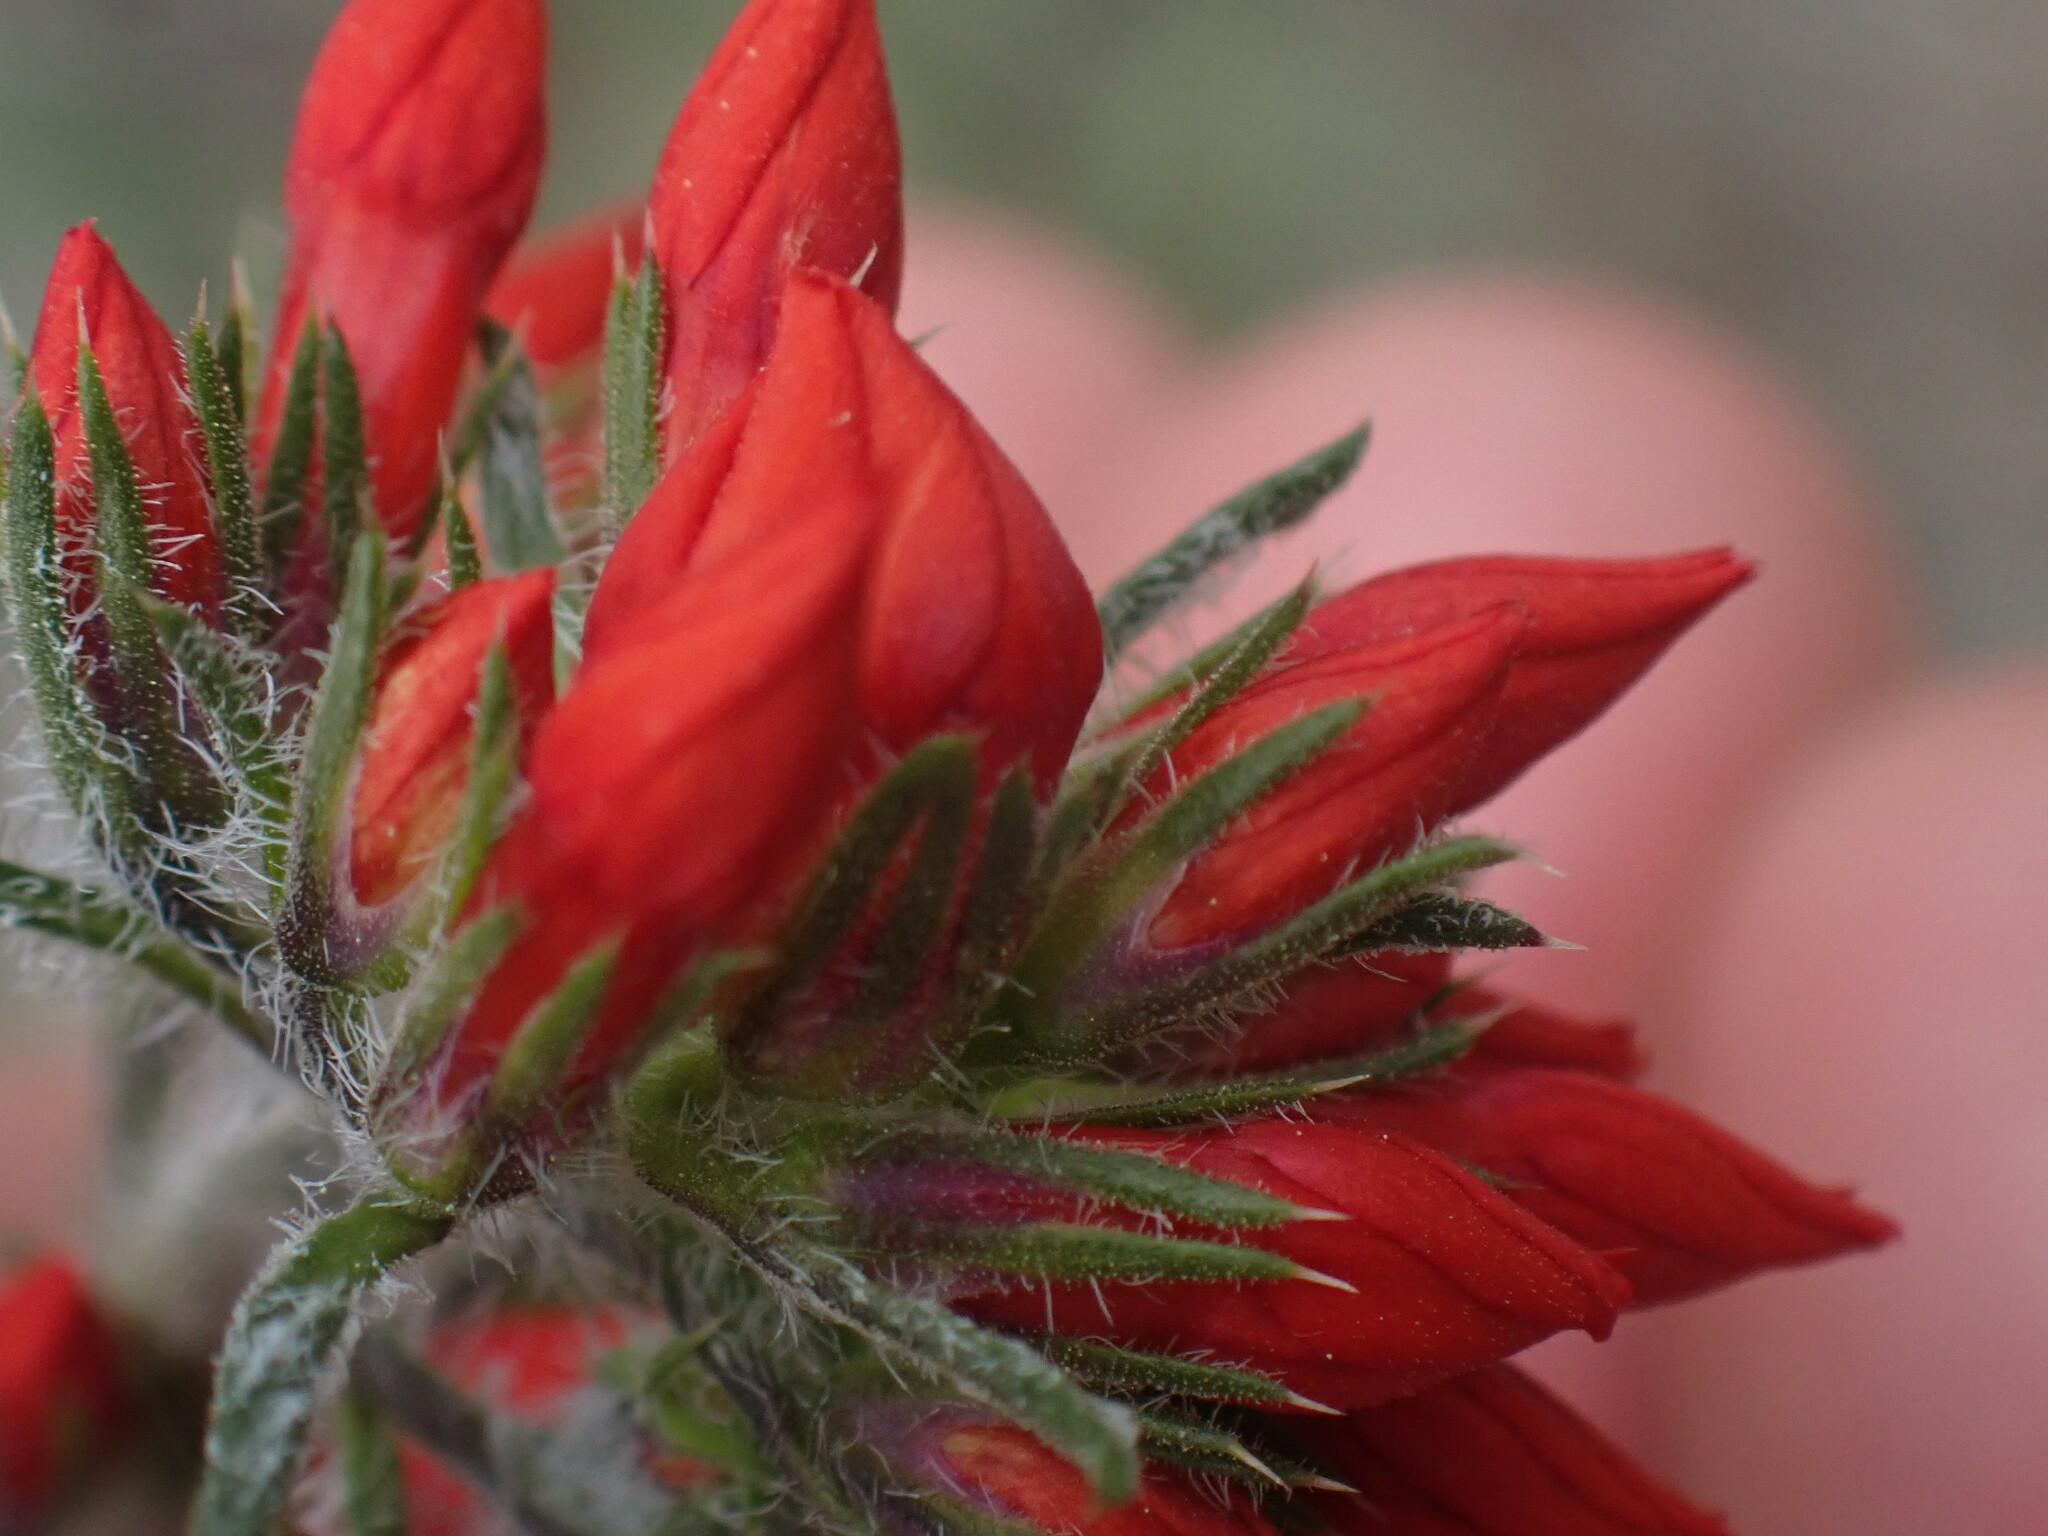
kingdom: Plantae
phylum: Tracheophyta
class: Magnoliopsida
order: Ericales
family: Polemoniaceae
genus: Ipomopsis
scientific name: Ipomopsis aggregata
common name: Scarlet gilia
